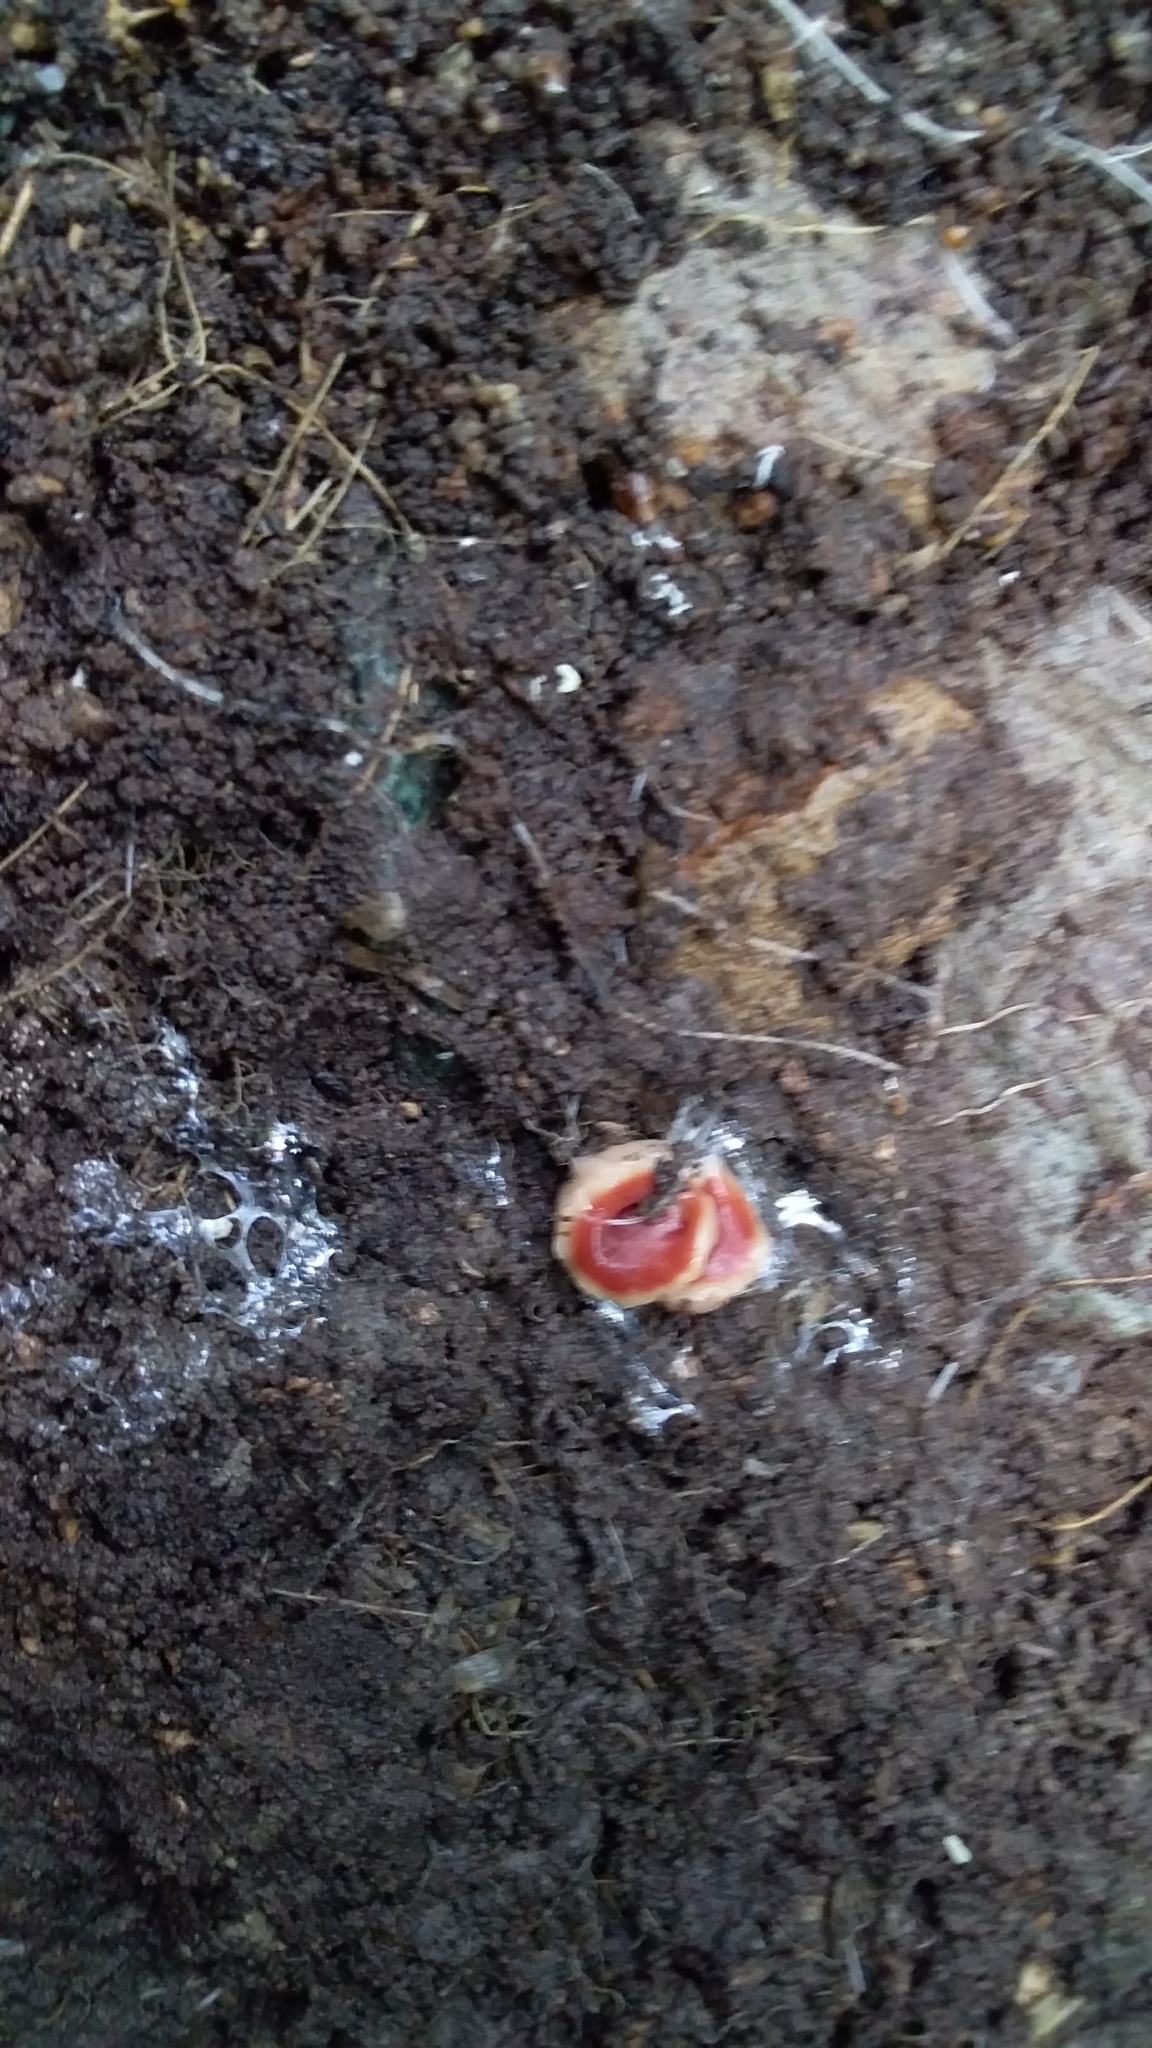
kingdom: Animalia
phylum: Platyhelminthes
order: Tricladida
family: Geoplanidae
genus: Arthurdendyus
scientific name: Arthurdendyus testaceus
